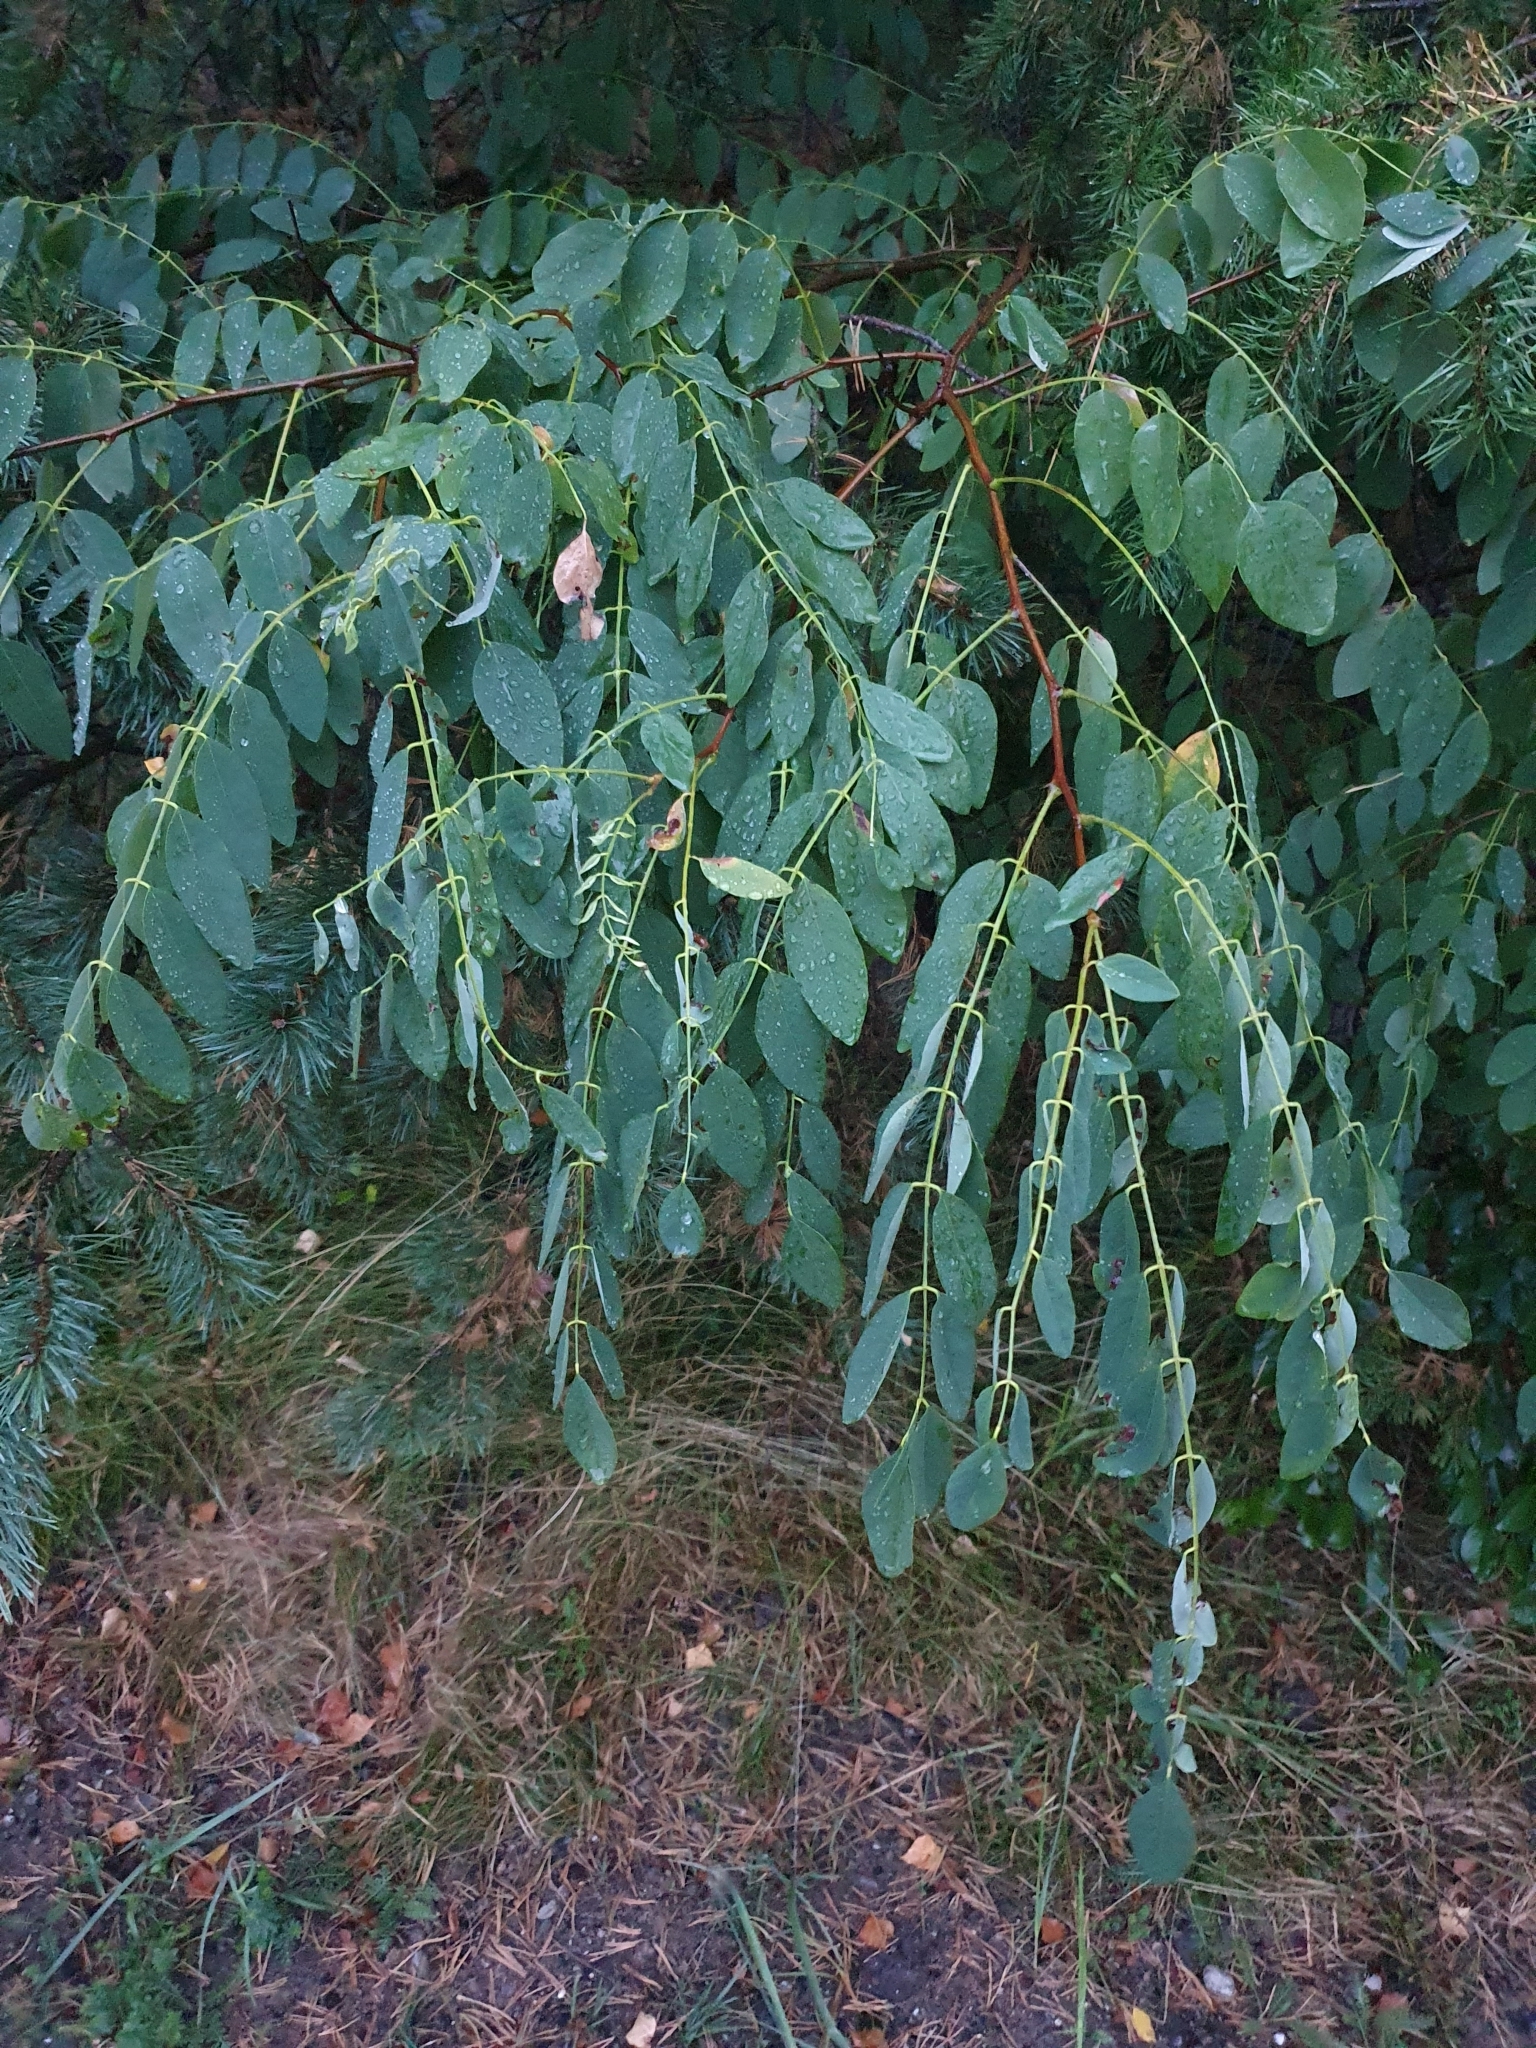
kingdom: Plantae
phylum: Tracheophyta
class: Magnoliopsida
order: Fabales
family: Fabaceae
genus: Robinia
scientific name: Robinia pseudoacacia
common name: Black locust
